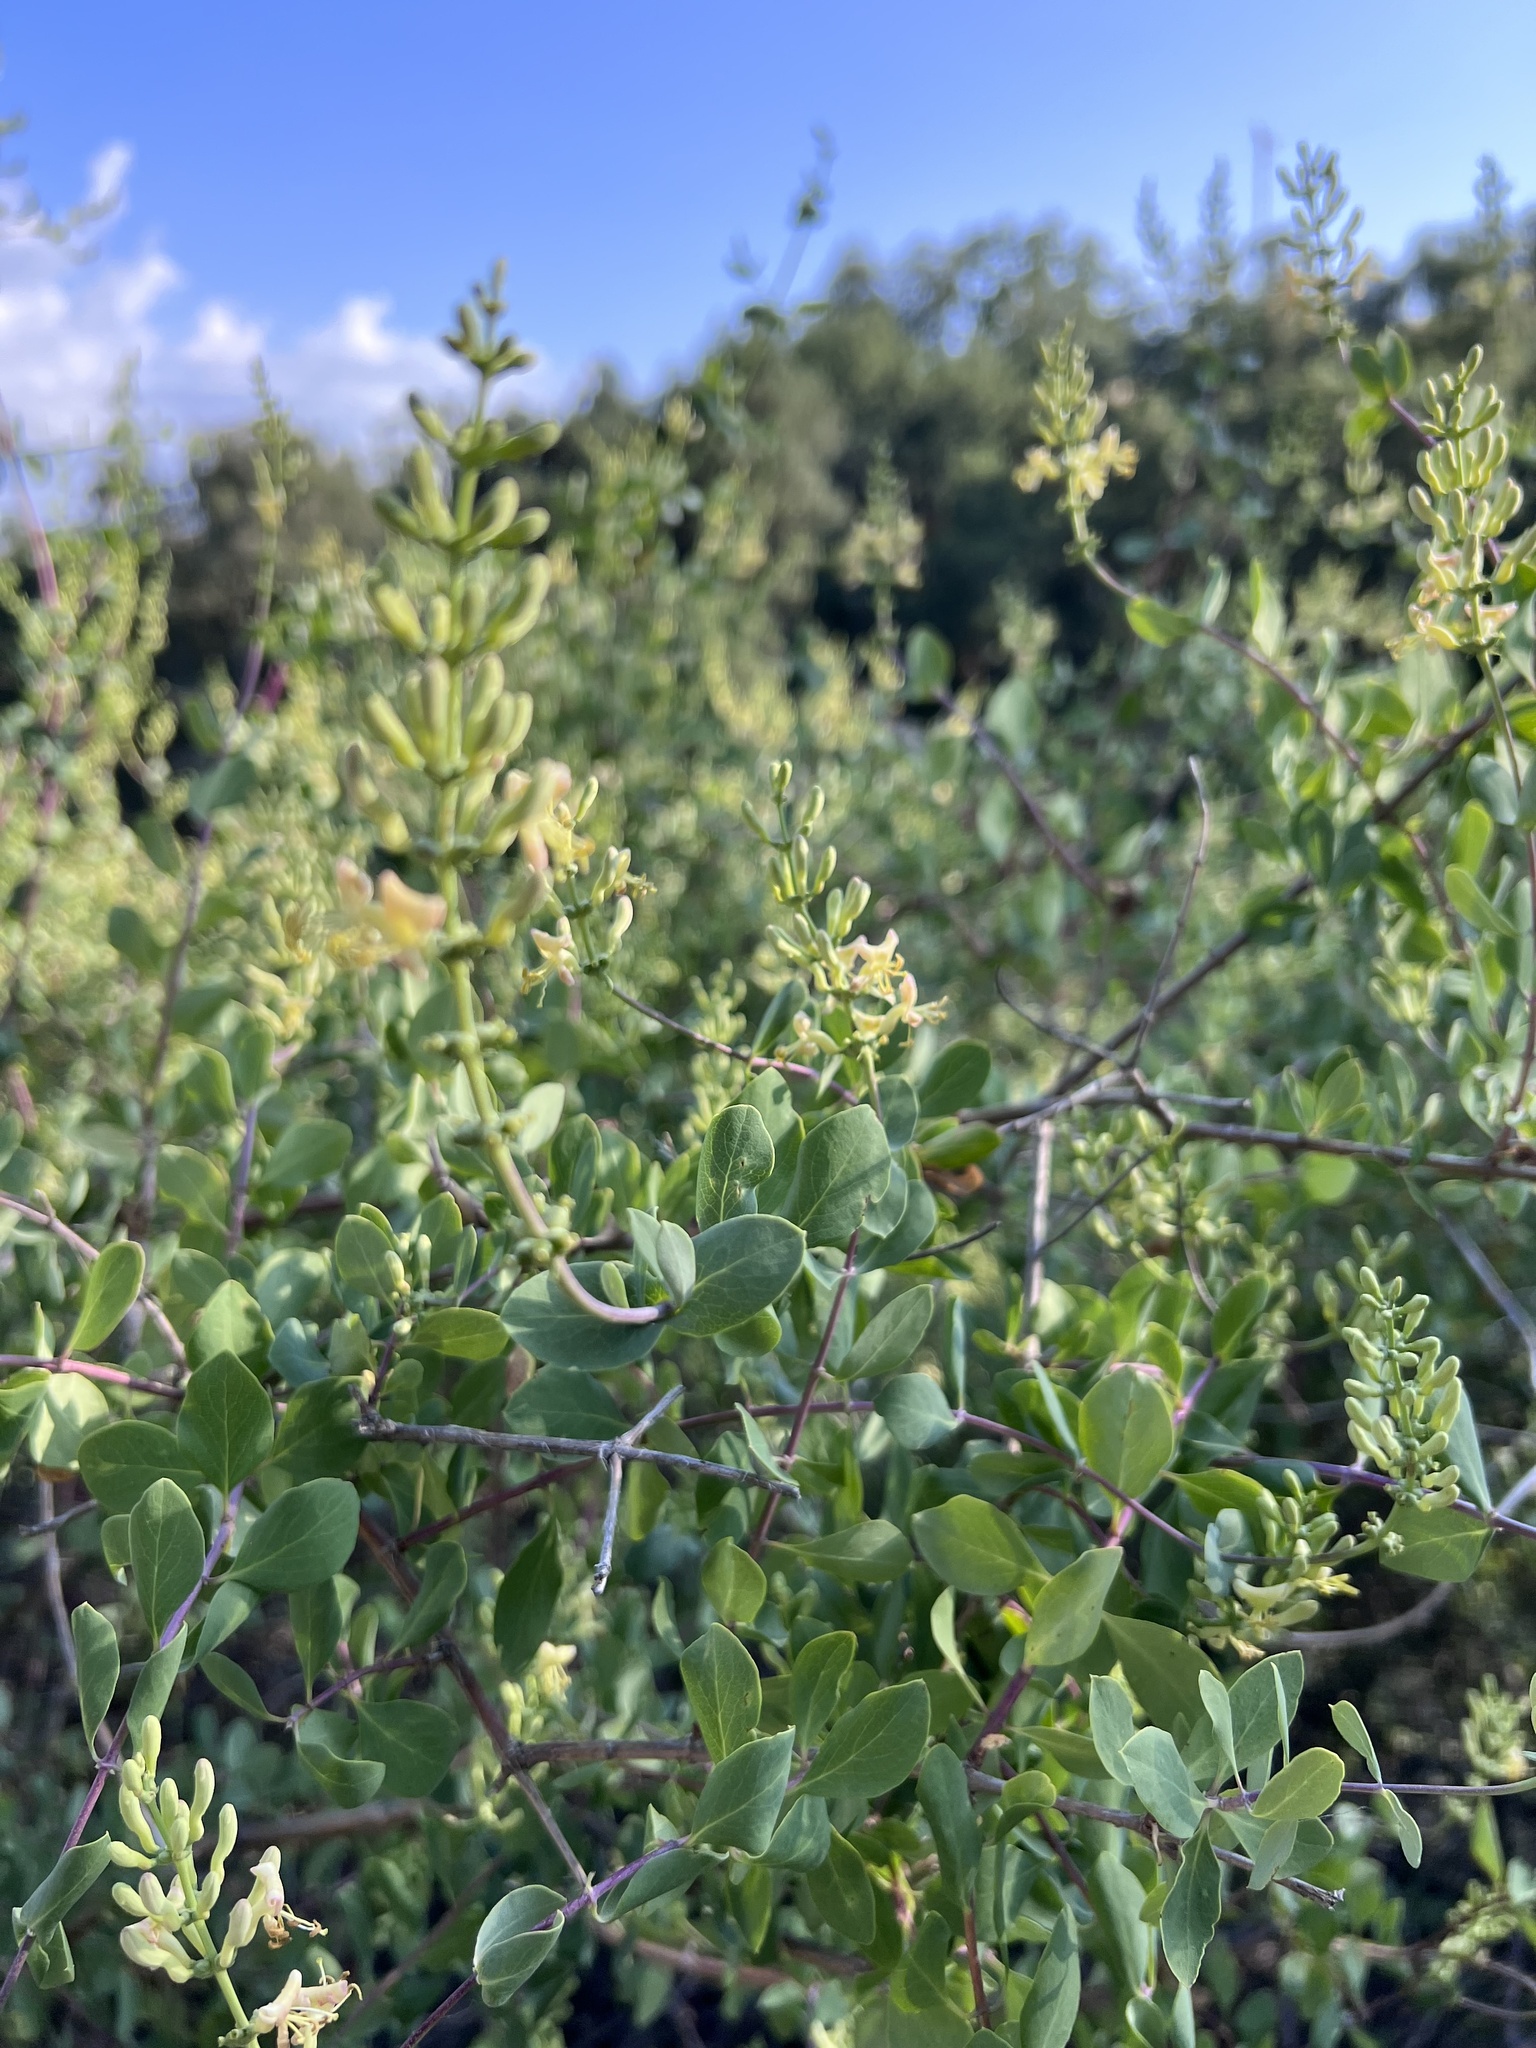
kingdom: Plantae
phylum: Tracheophyta
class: Magnoliopsida
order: Dipsacales
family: Caprifoliaceae
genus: Lonicera
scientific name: Lonicera interrupta
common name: Chaparral honeysuckle
